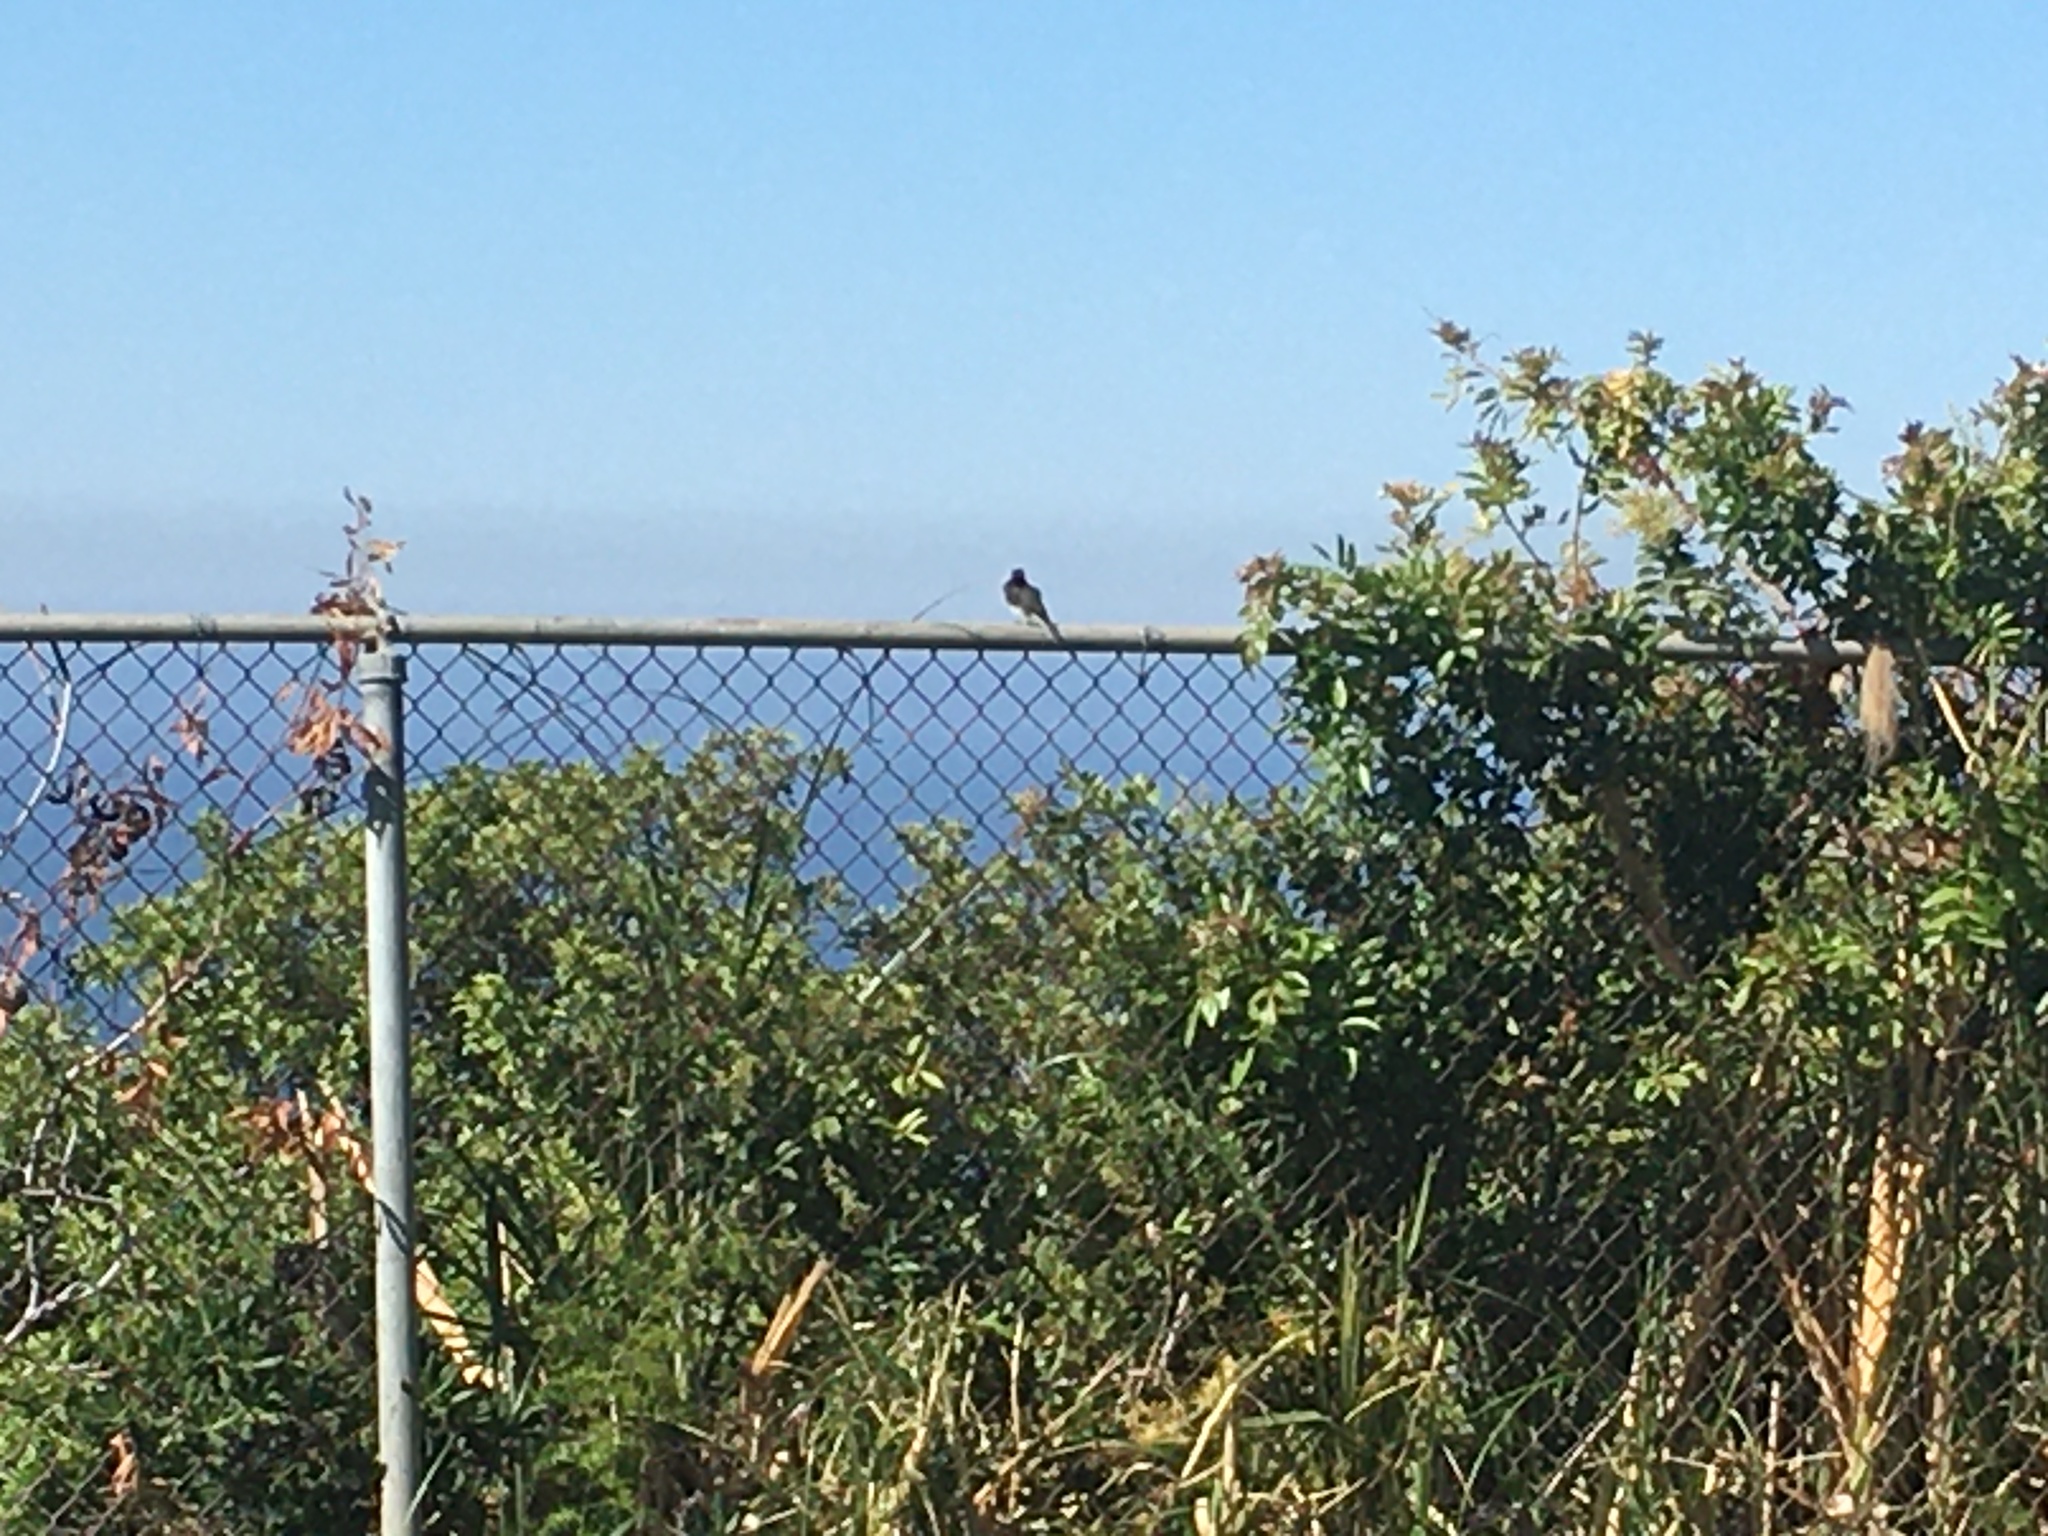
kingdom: Animalia
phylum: Chordata
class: Aves
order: Passeriformes
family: Tyrannidae
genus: Sayornis
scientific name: Sayornis nigricans
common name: Black phoebe
